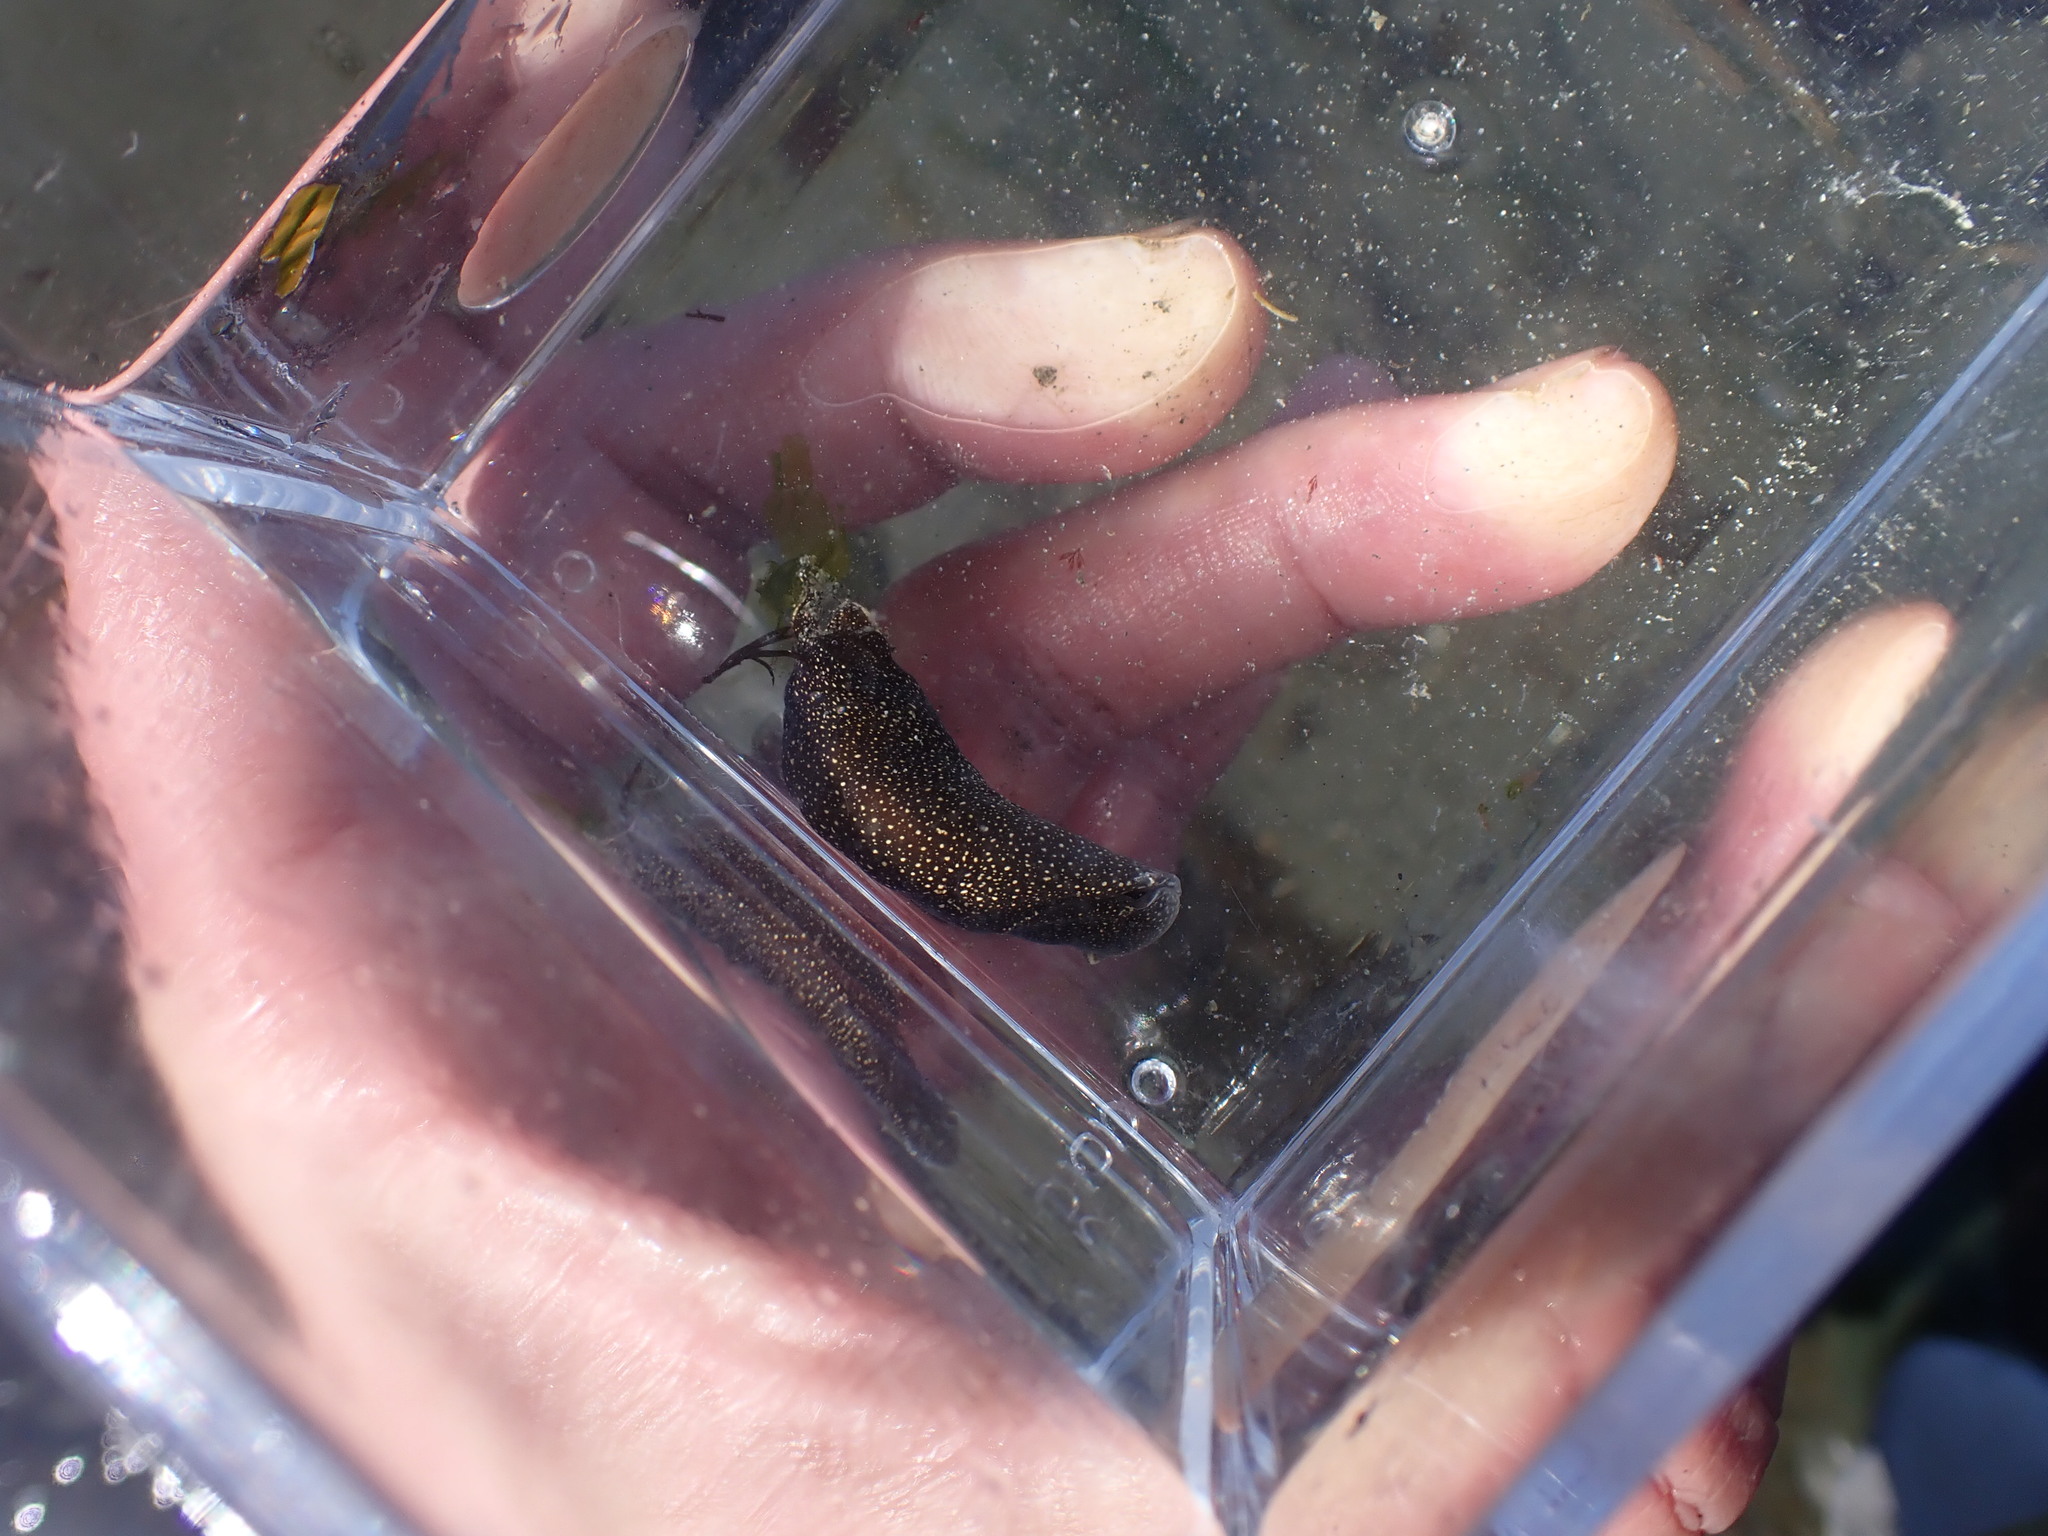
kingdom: Animalia
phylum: Mollusca
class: Gastropoda
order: Cephalaspidea
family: Aglajidae
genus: Aglaja
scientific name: Aglaja ocelligera
